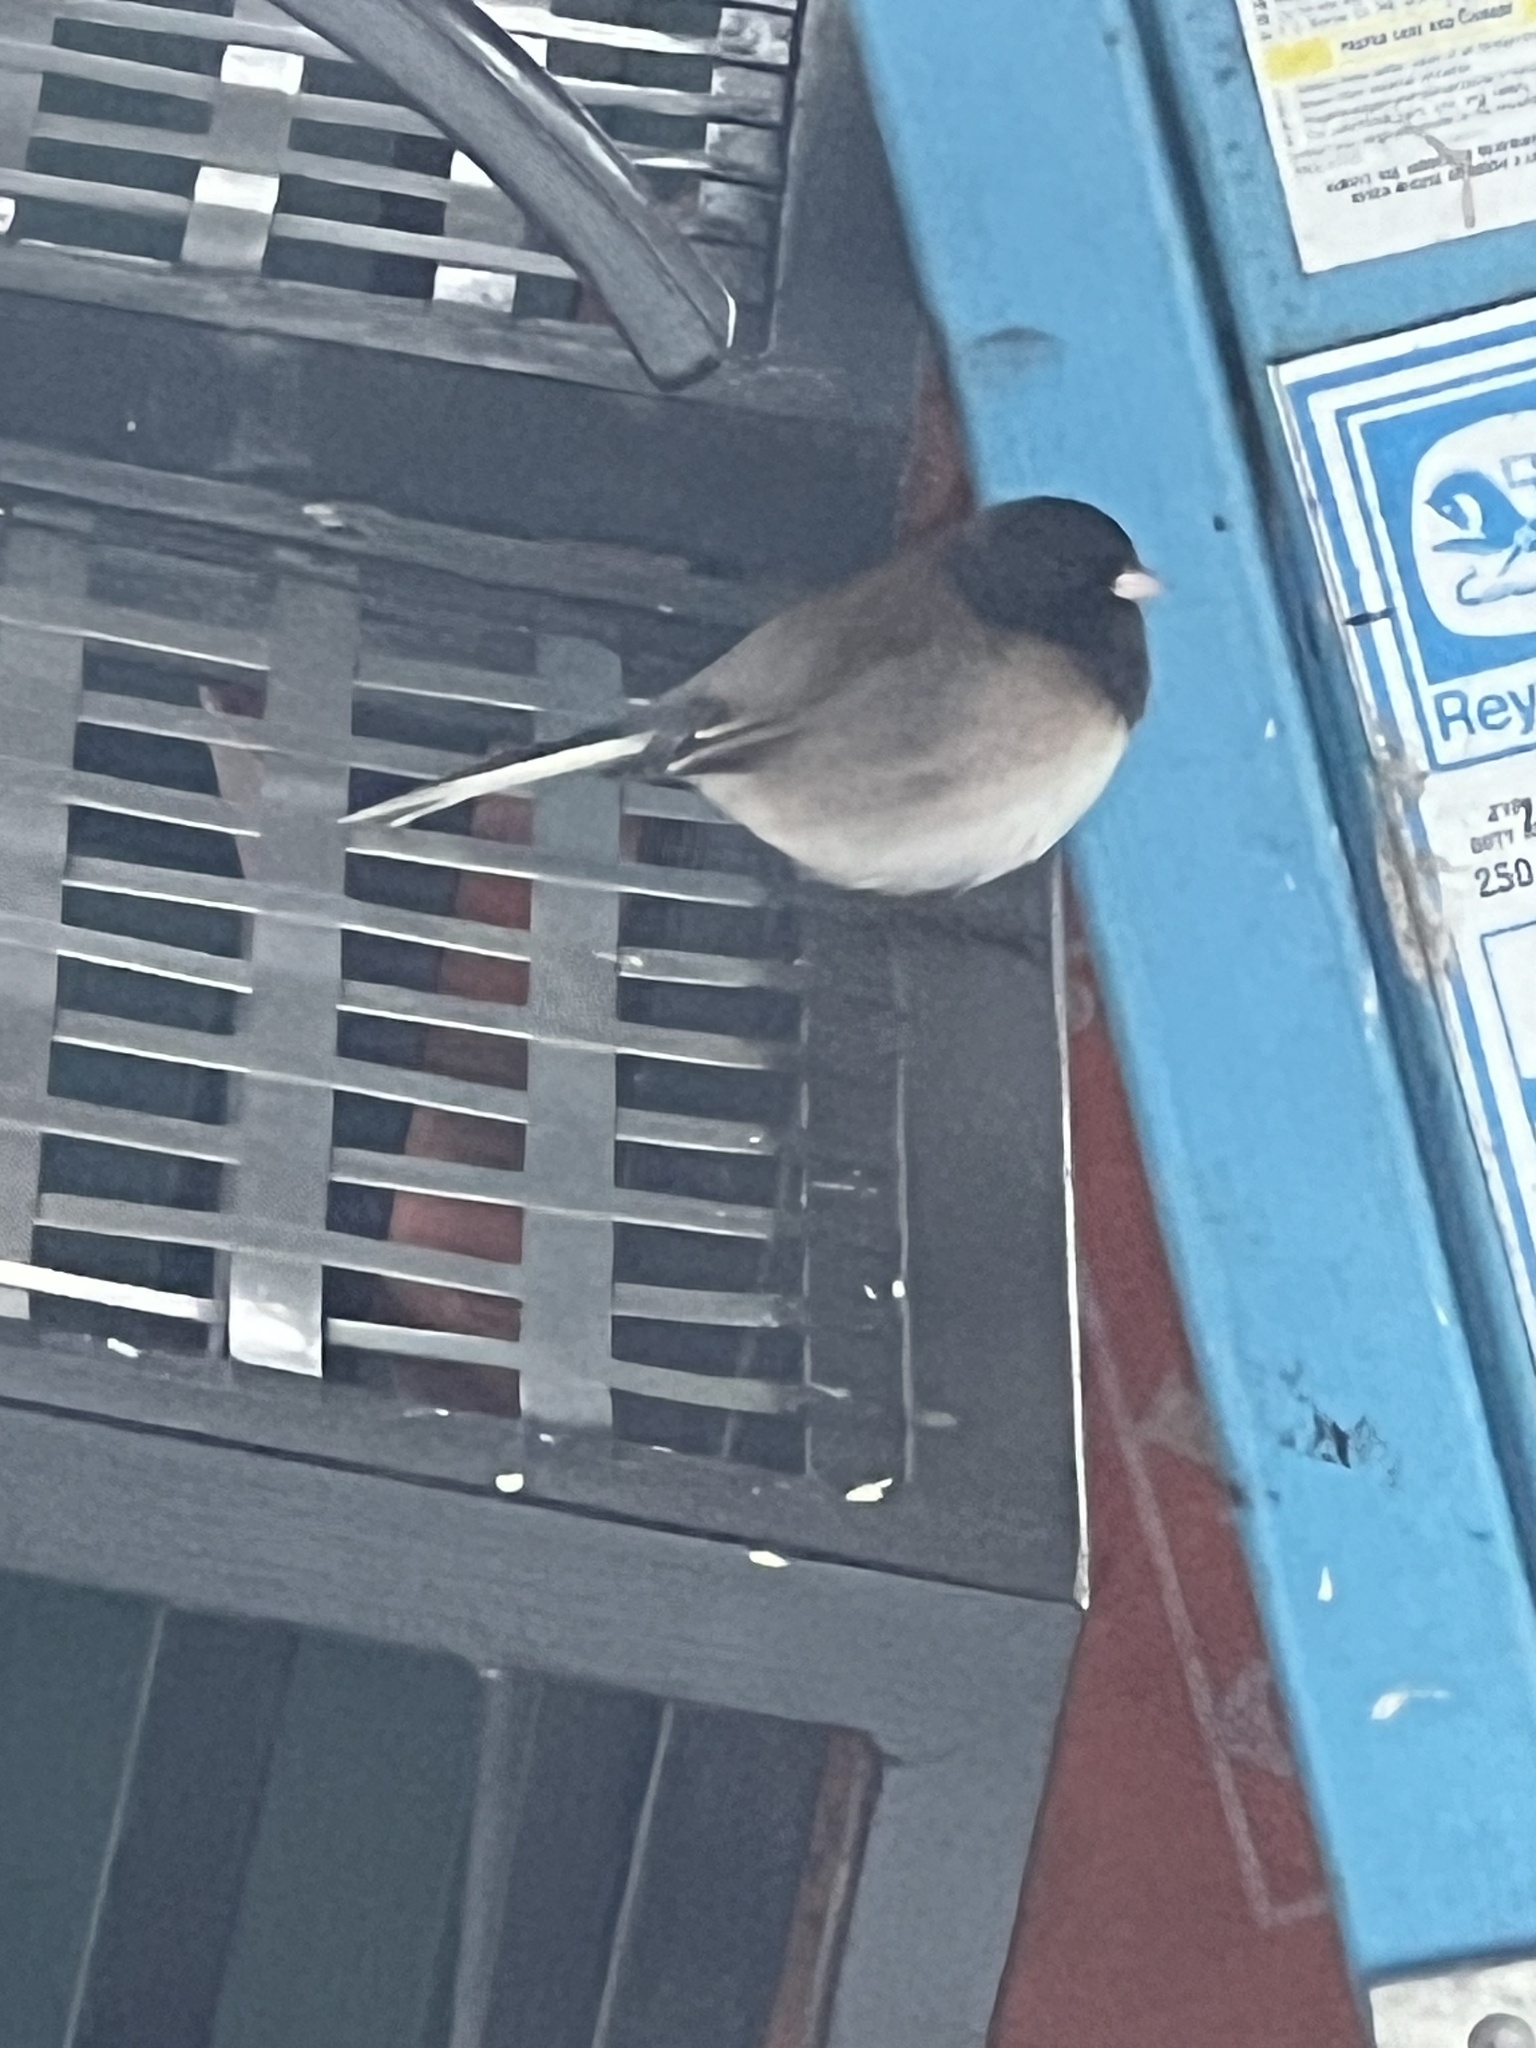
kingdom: Animalia
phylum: Chordata
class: Aves
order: Passeriformes
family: Passerellidae
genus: Junco
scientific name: Junco hyemalis
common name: Dark-eyed junco
